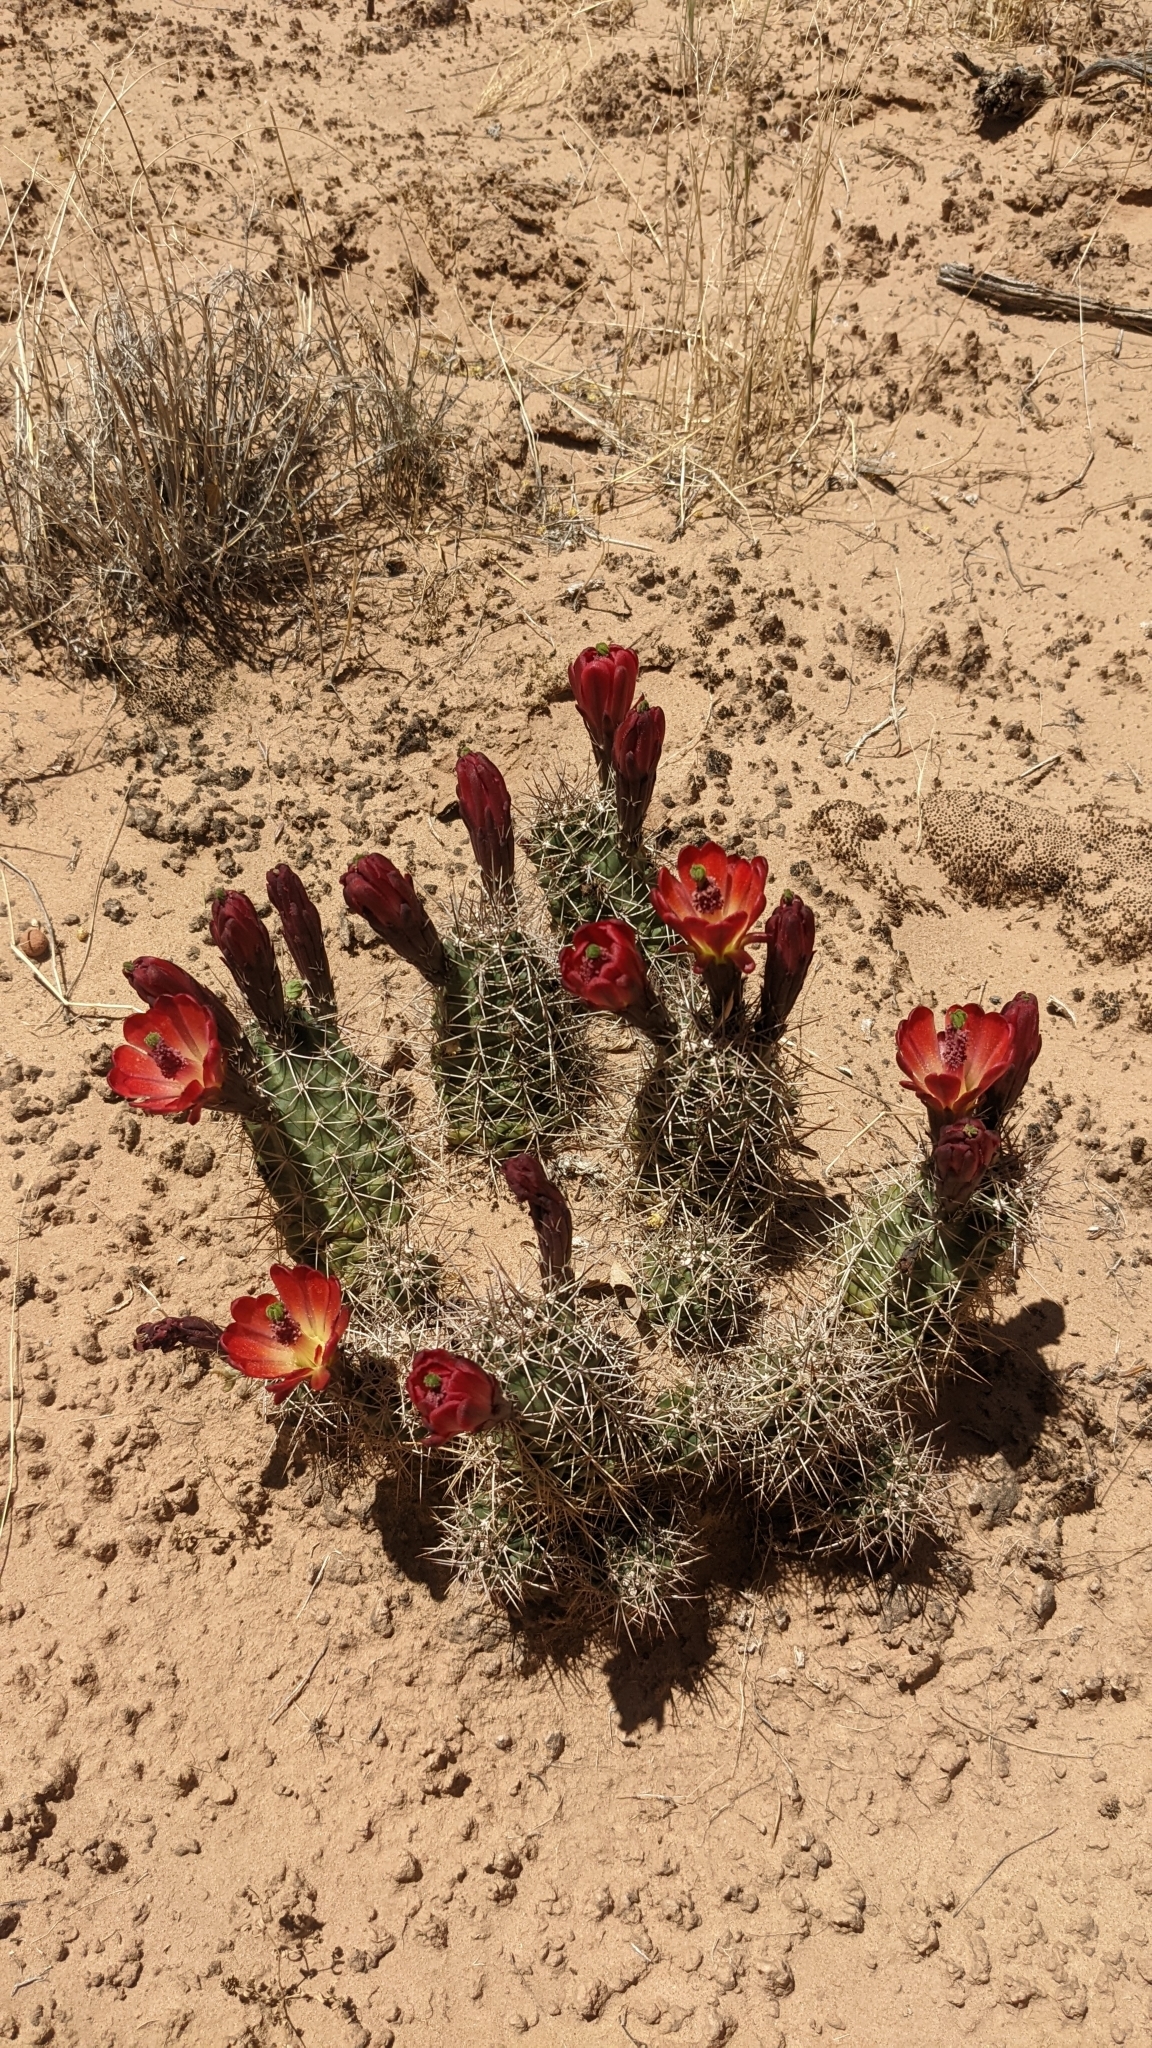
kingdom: Plantae
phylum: Tracheophyta
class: Magnoliopsida
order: Caryophyllales
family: Cactaceae
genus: Echinocereus
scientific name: Echinocereus triglochidiatus
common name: Claretcup hedgehog
